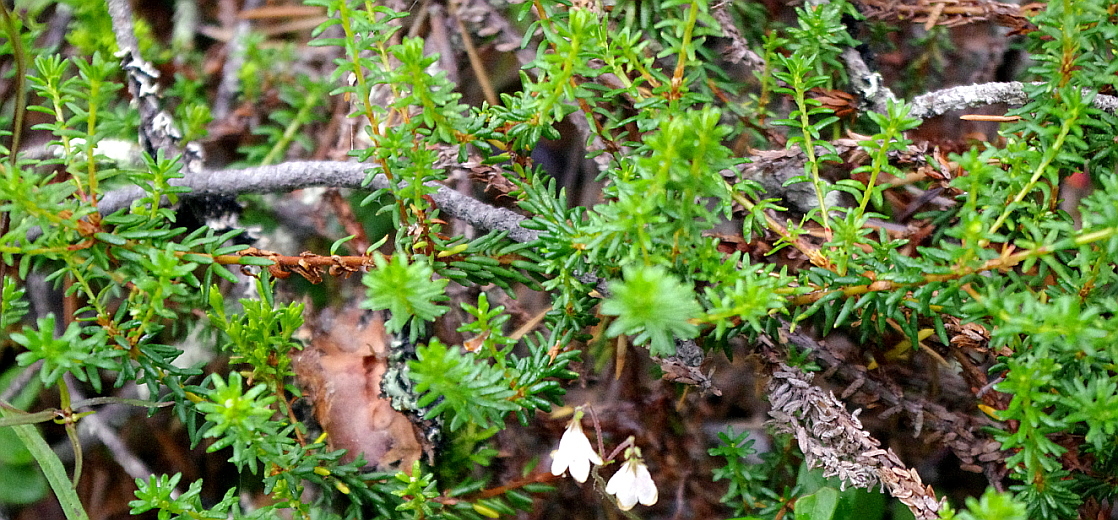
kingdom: Plantae
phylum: Tracheophyta
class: Magnoliopsida
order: Ericales
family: Ericaceae
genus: Empetrum
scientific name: Empetrum nigrum
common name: Black crowberry
